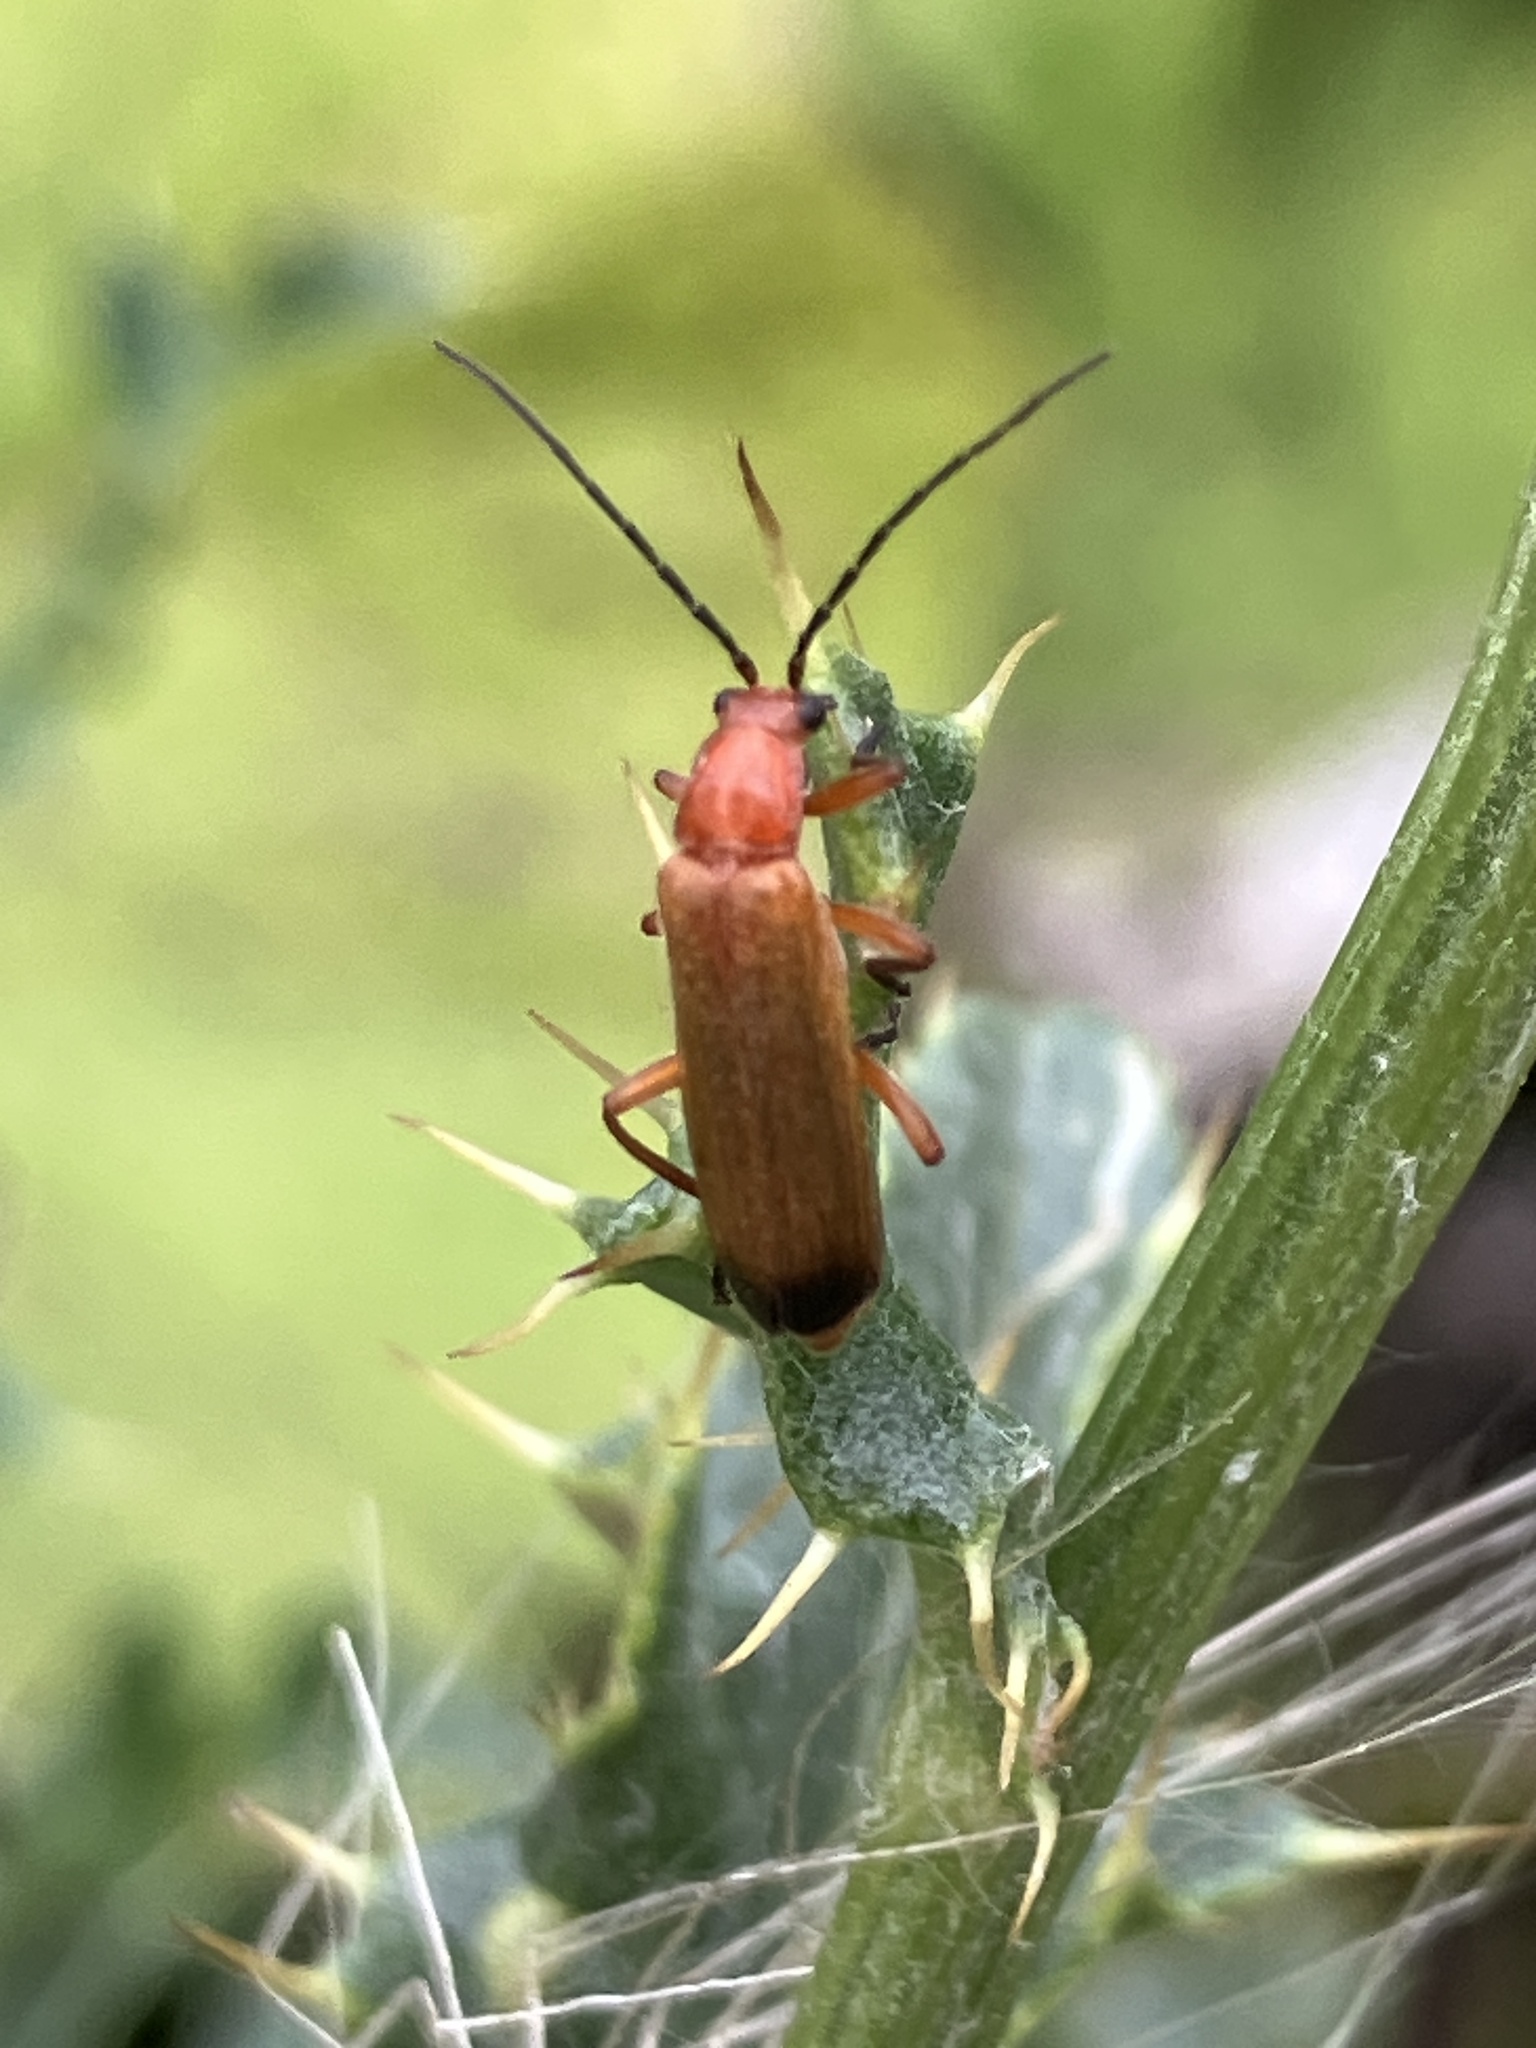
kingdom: Animalia
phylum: Arthropoda
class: Insecta
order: Coleoptera
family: Cantharidae
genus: Rhagonycha
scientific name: Rhagonycha fulva
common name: Common red soldier beetle
